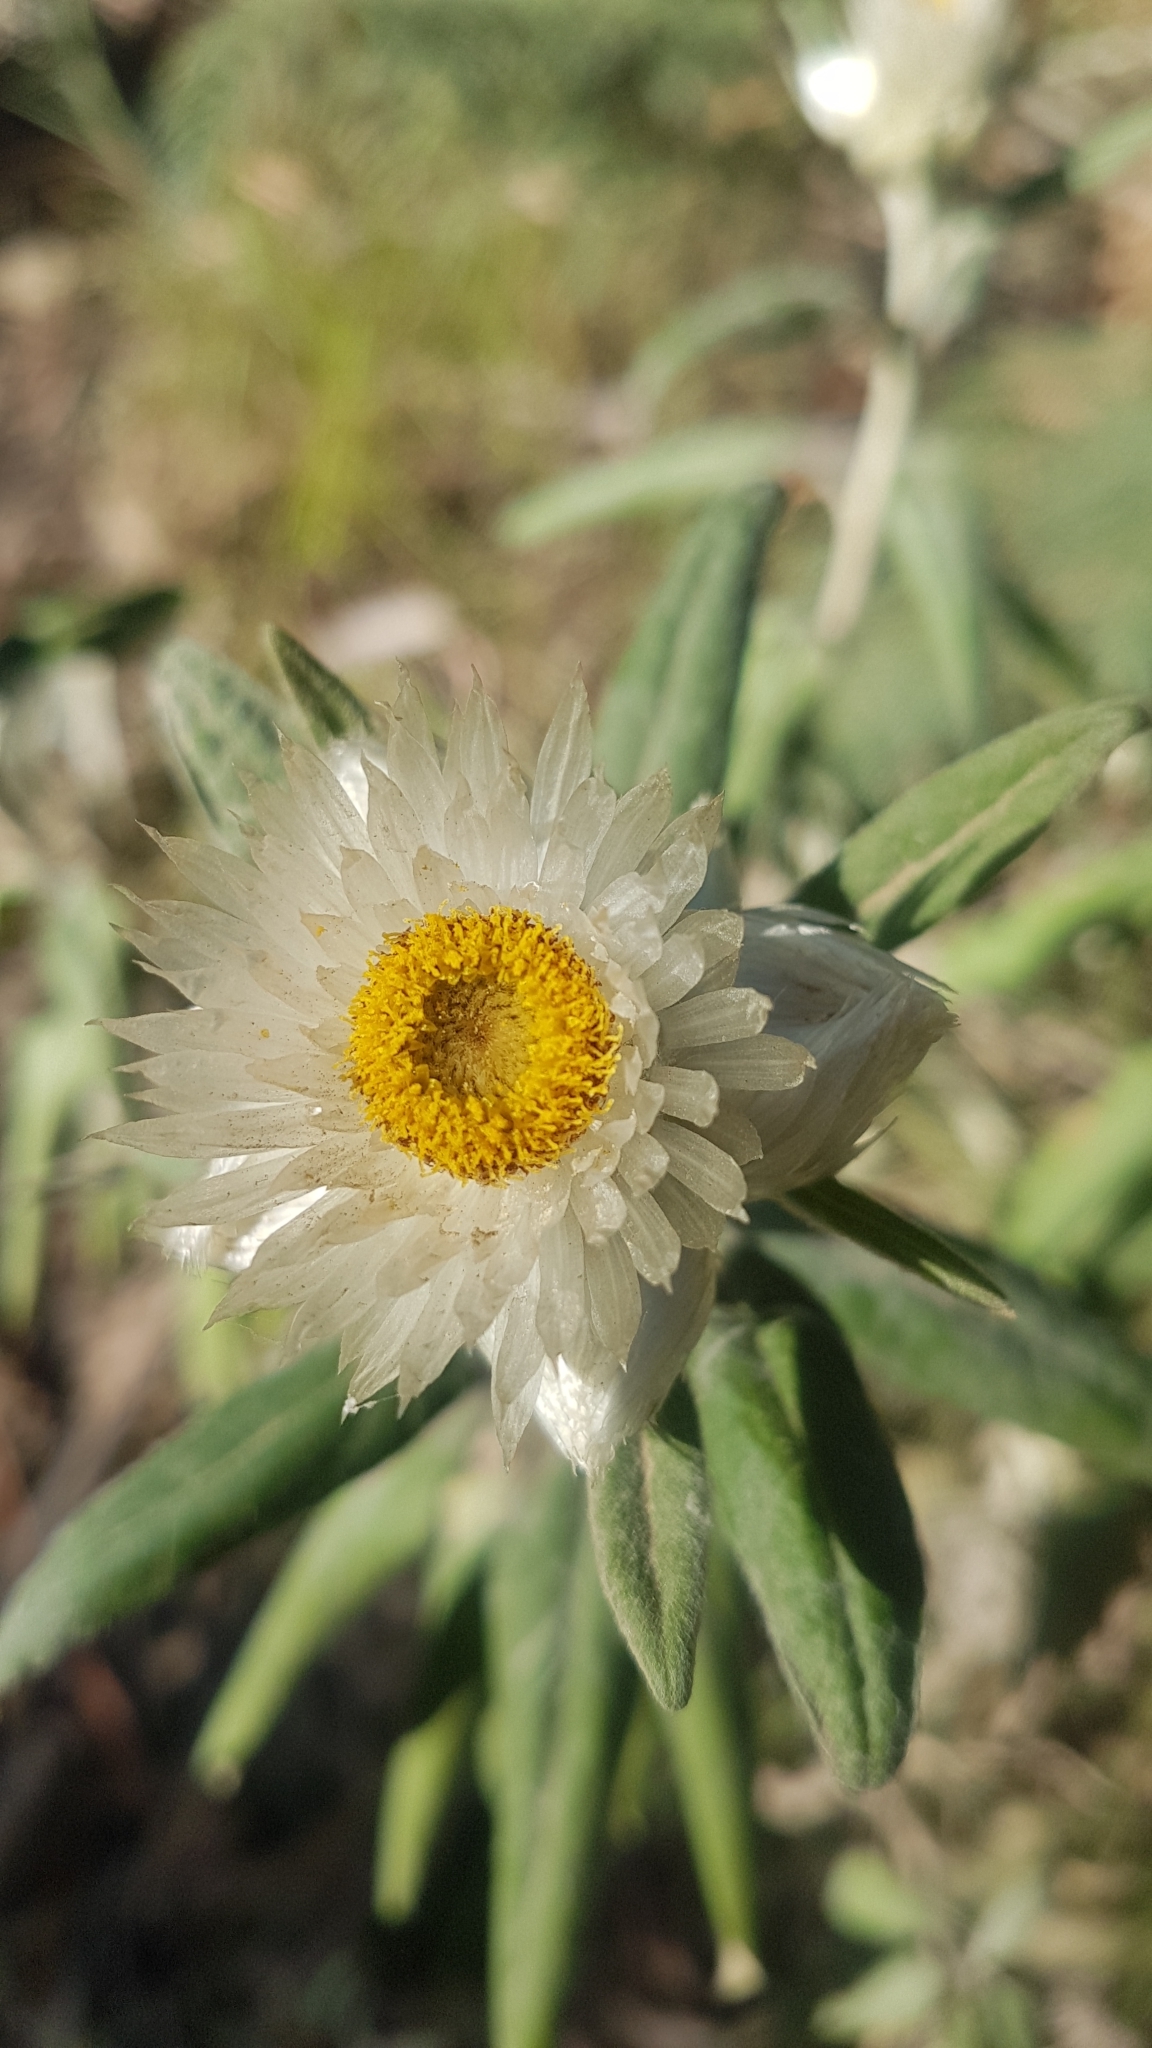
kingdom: Plantae
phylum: Tracheophyta
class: Magnoliopsida
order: Asterales
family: Asteraceae
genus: Leucozoma
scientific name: Leucozoma elatum
